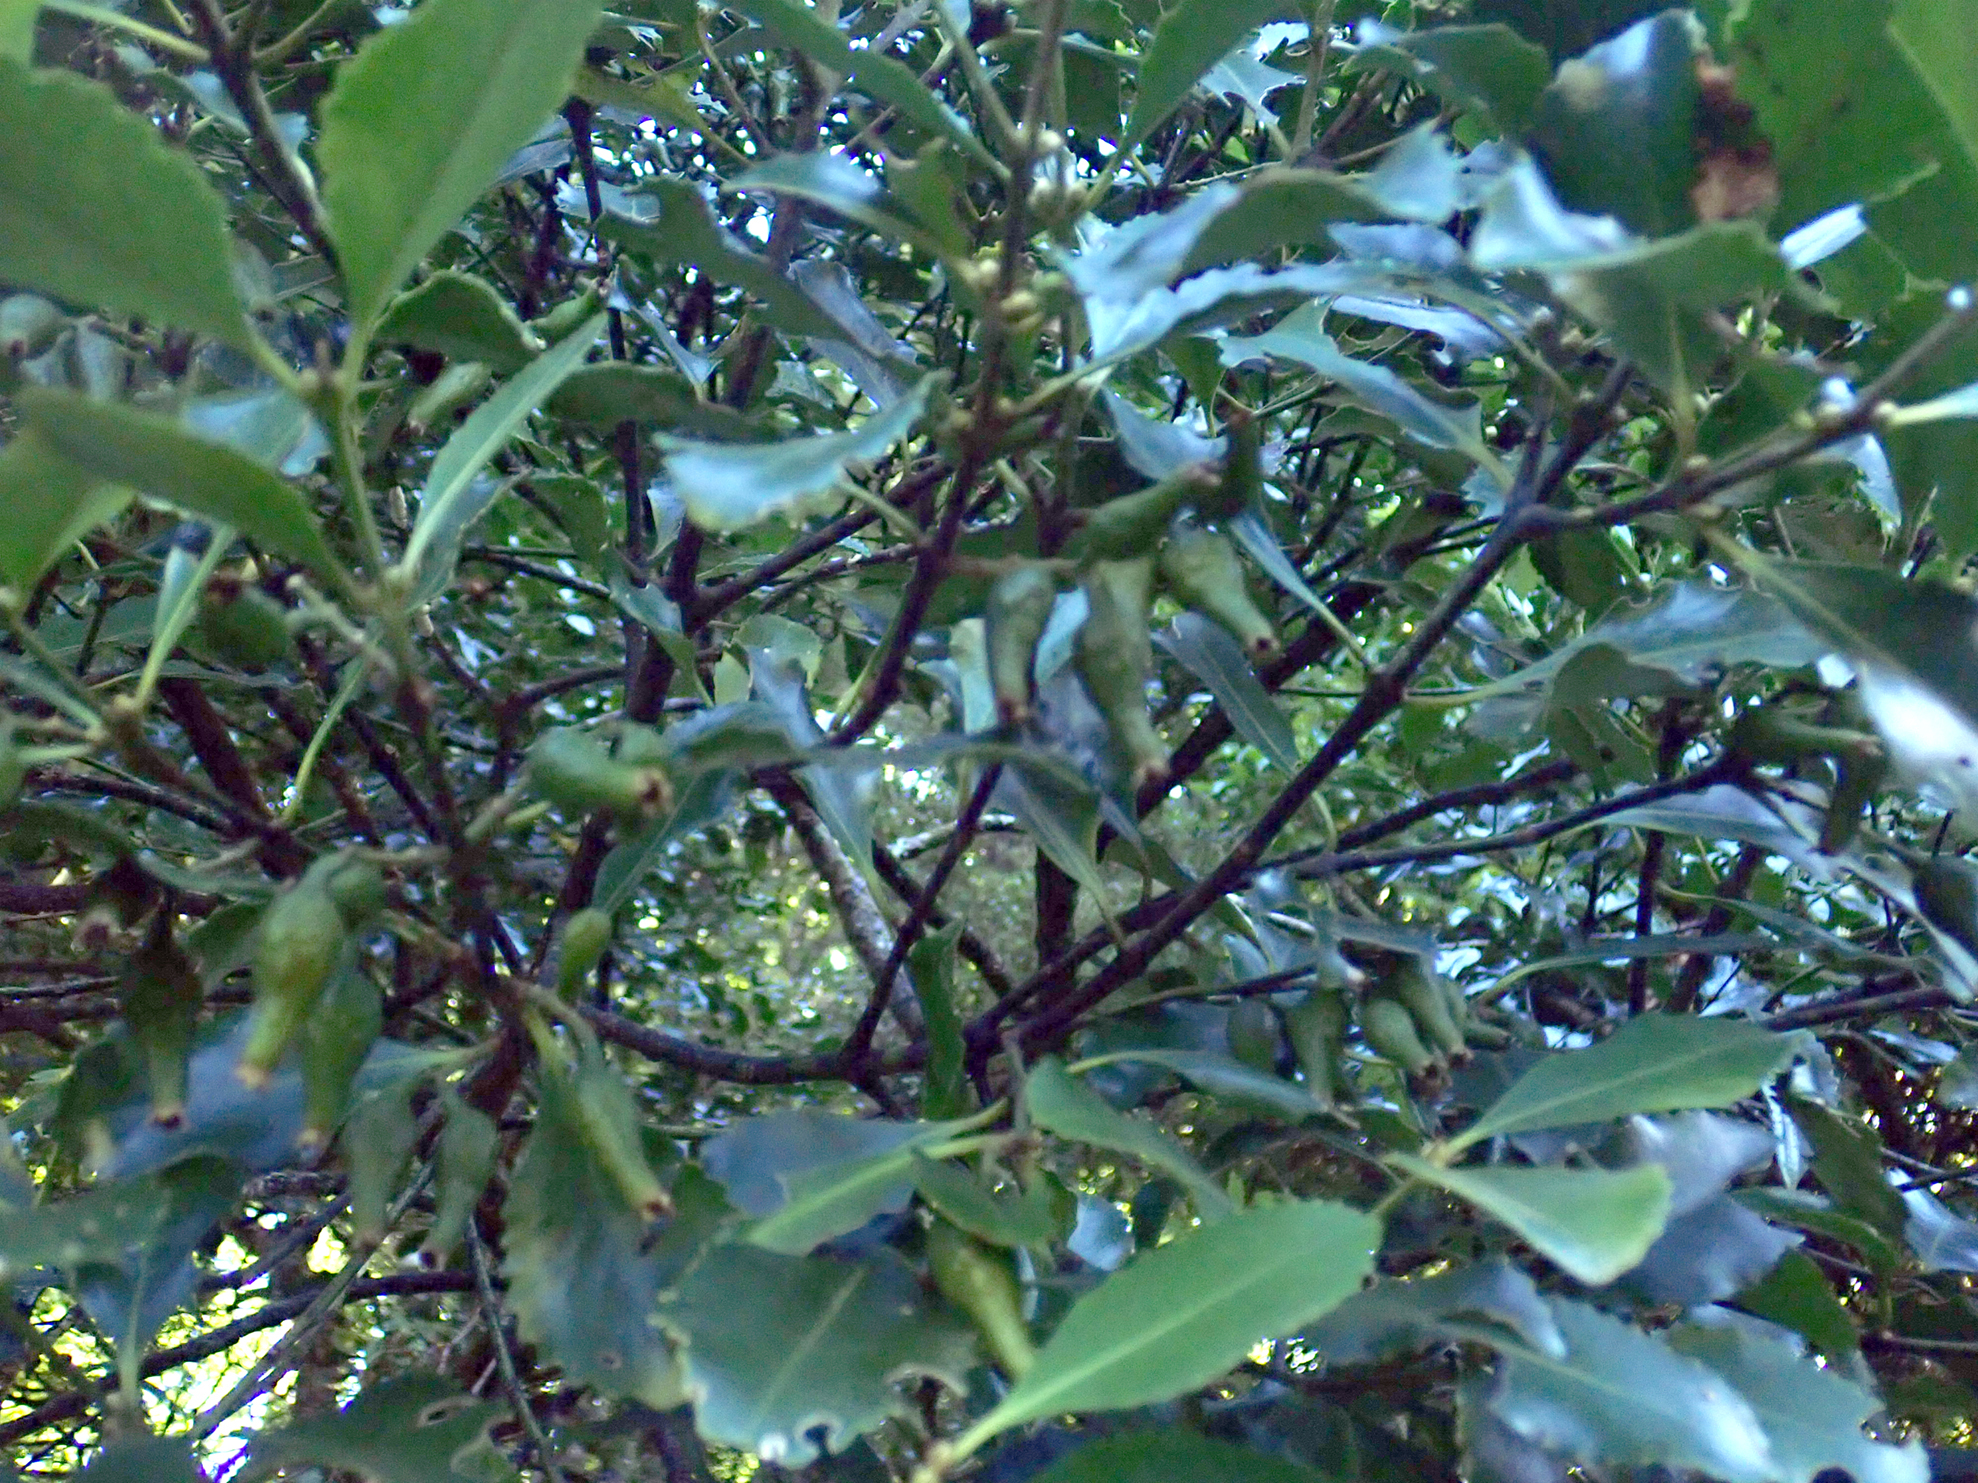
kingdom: Plantae
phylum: Tracheophyta
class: Magnoliopsida
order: Laurales
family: Atherospermataceae
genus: Laurelia
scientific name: Laurelia novae-zelandiae
